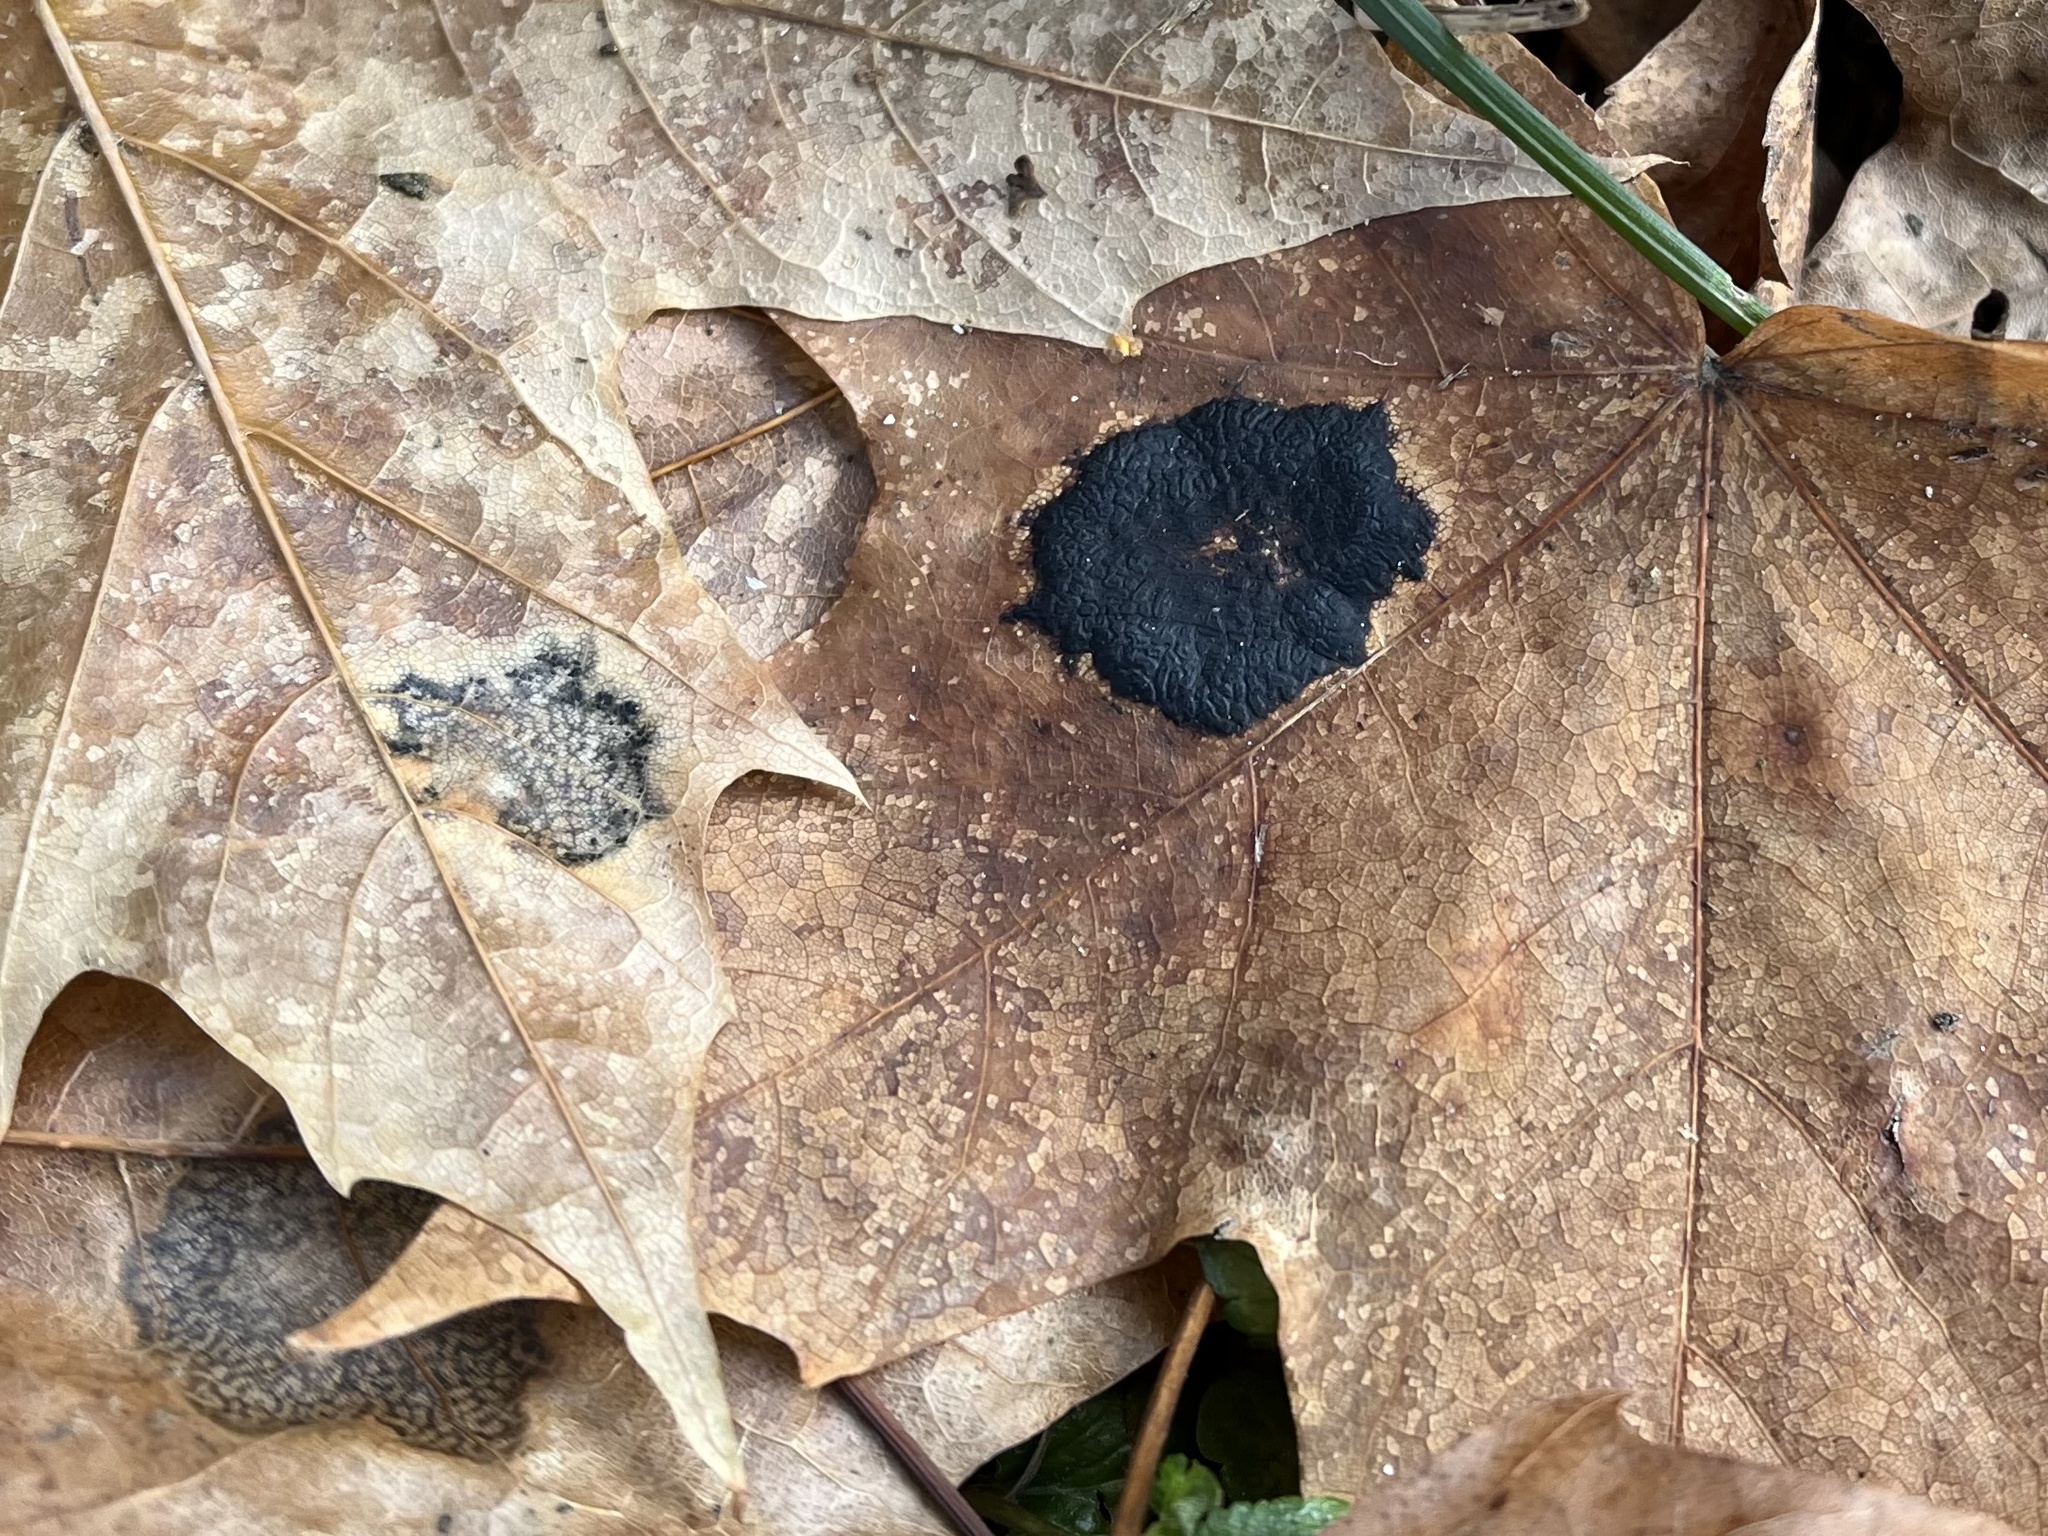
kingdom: Fungi
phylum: Ascomycota
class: Leotiomycetes
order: Rhytismatales
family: Rhytismataceae
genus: Rhytisma
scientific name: Rhytisma acerinum
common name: European tar spot
